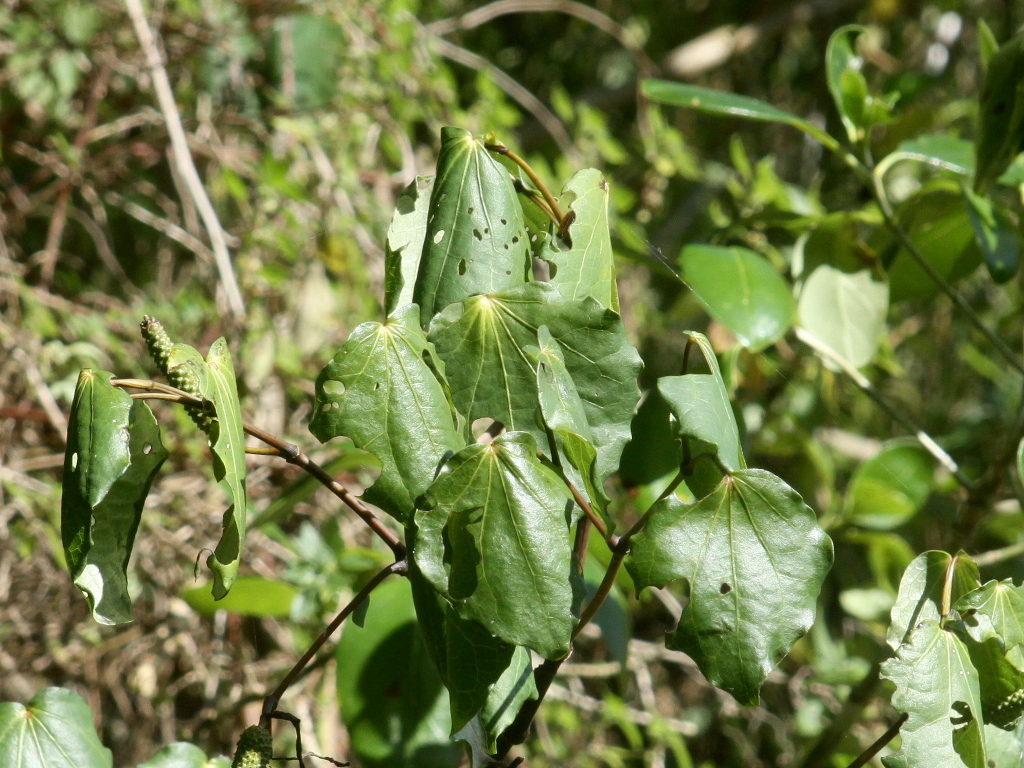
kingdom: Plantae
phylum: Tracheophyta
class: Magnoliopsida
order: Piperales
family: Piperaceae
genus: Macropiper
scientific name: Macropiper excelsum
